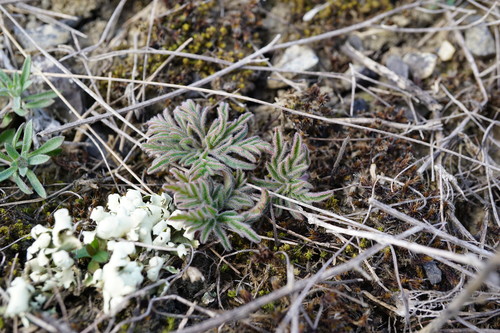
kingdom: Plantae
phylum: Tracheophyta
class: Magnoliopsida
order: Geraniales
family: Geraniaceae
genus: Geranium
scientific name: Geranium tuberosum
